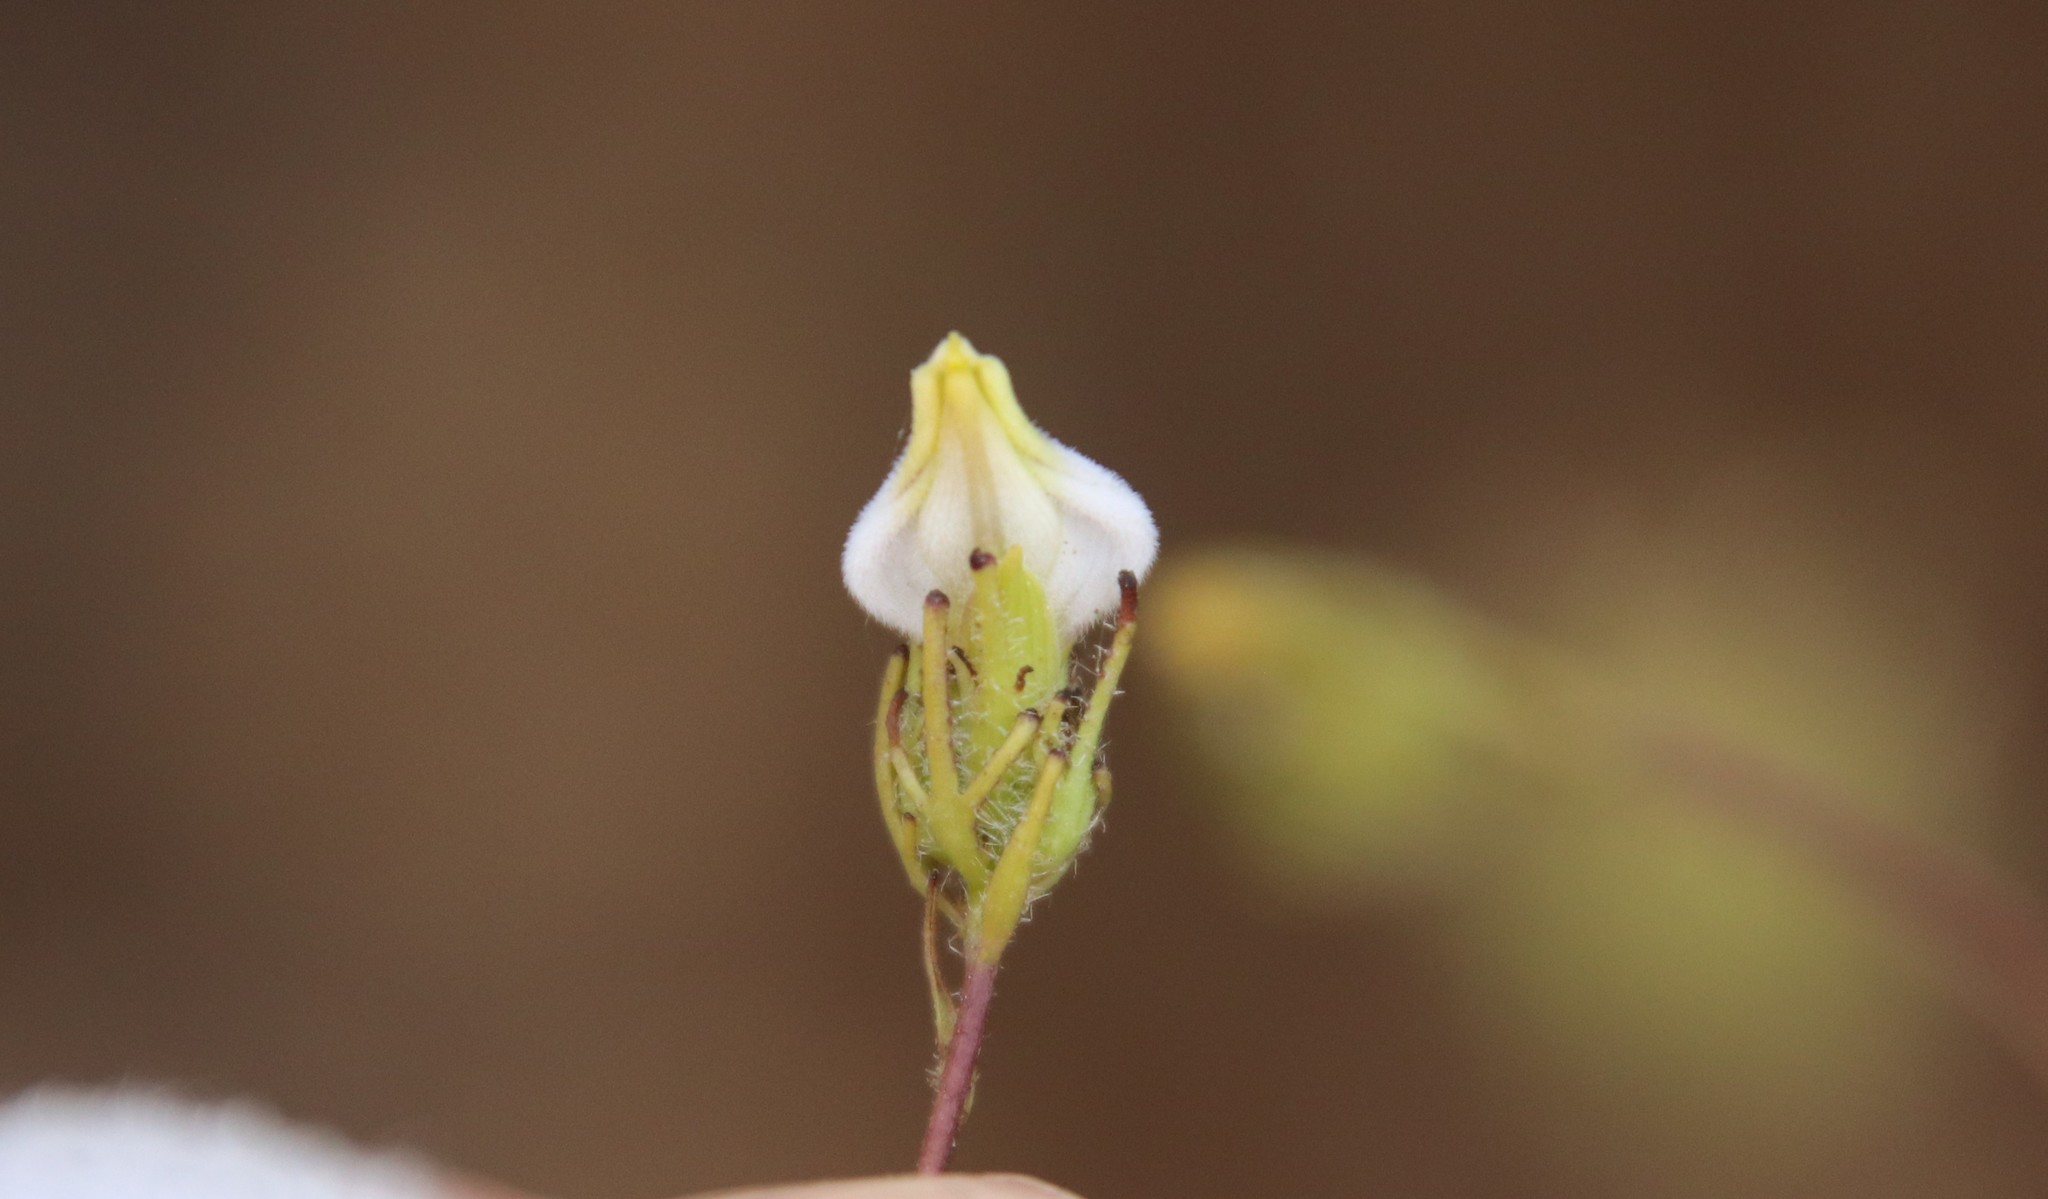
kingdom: Plantae
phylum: Tracheophyta
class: Magnoliopsida
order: Lamiales
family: Orobanchaceae
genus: Cordylanthus
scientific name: Cordylanthus rigidus
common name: Stiff-branch bird's-beak
